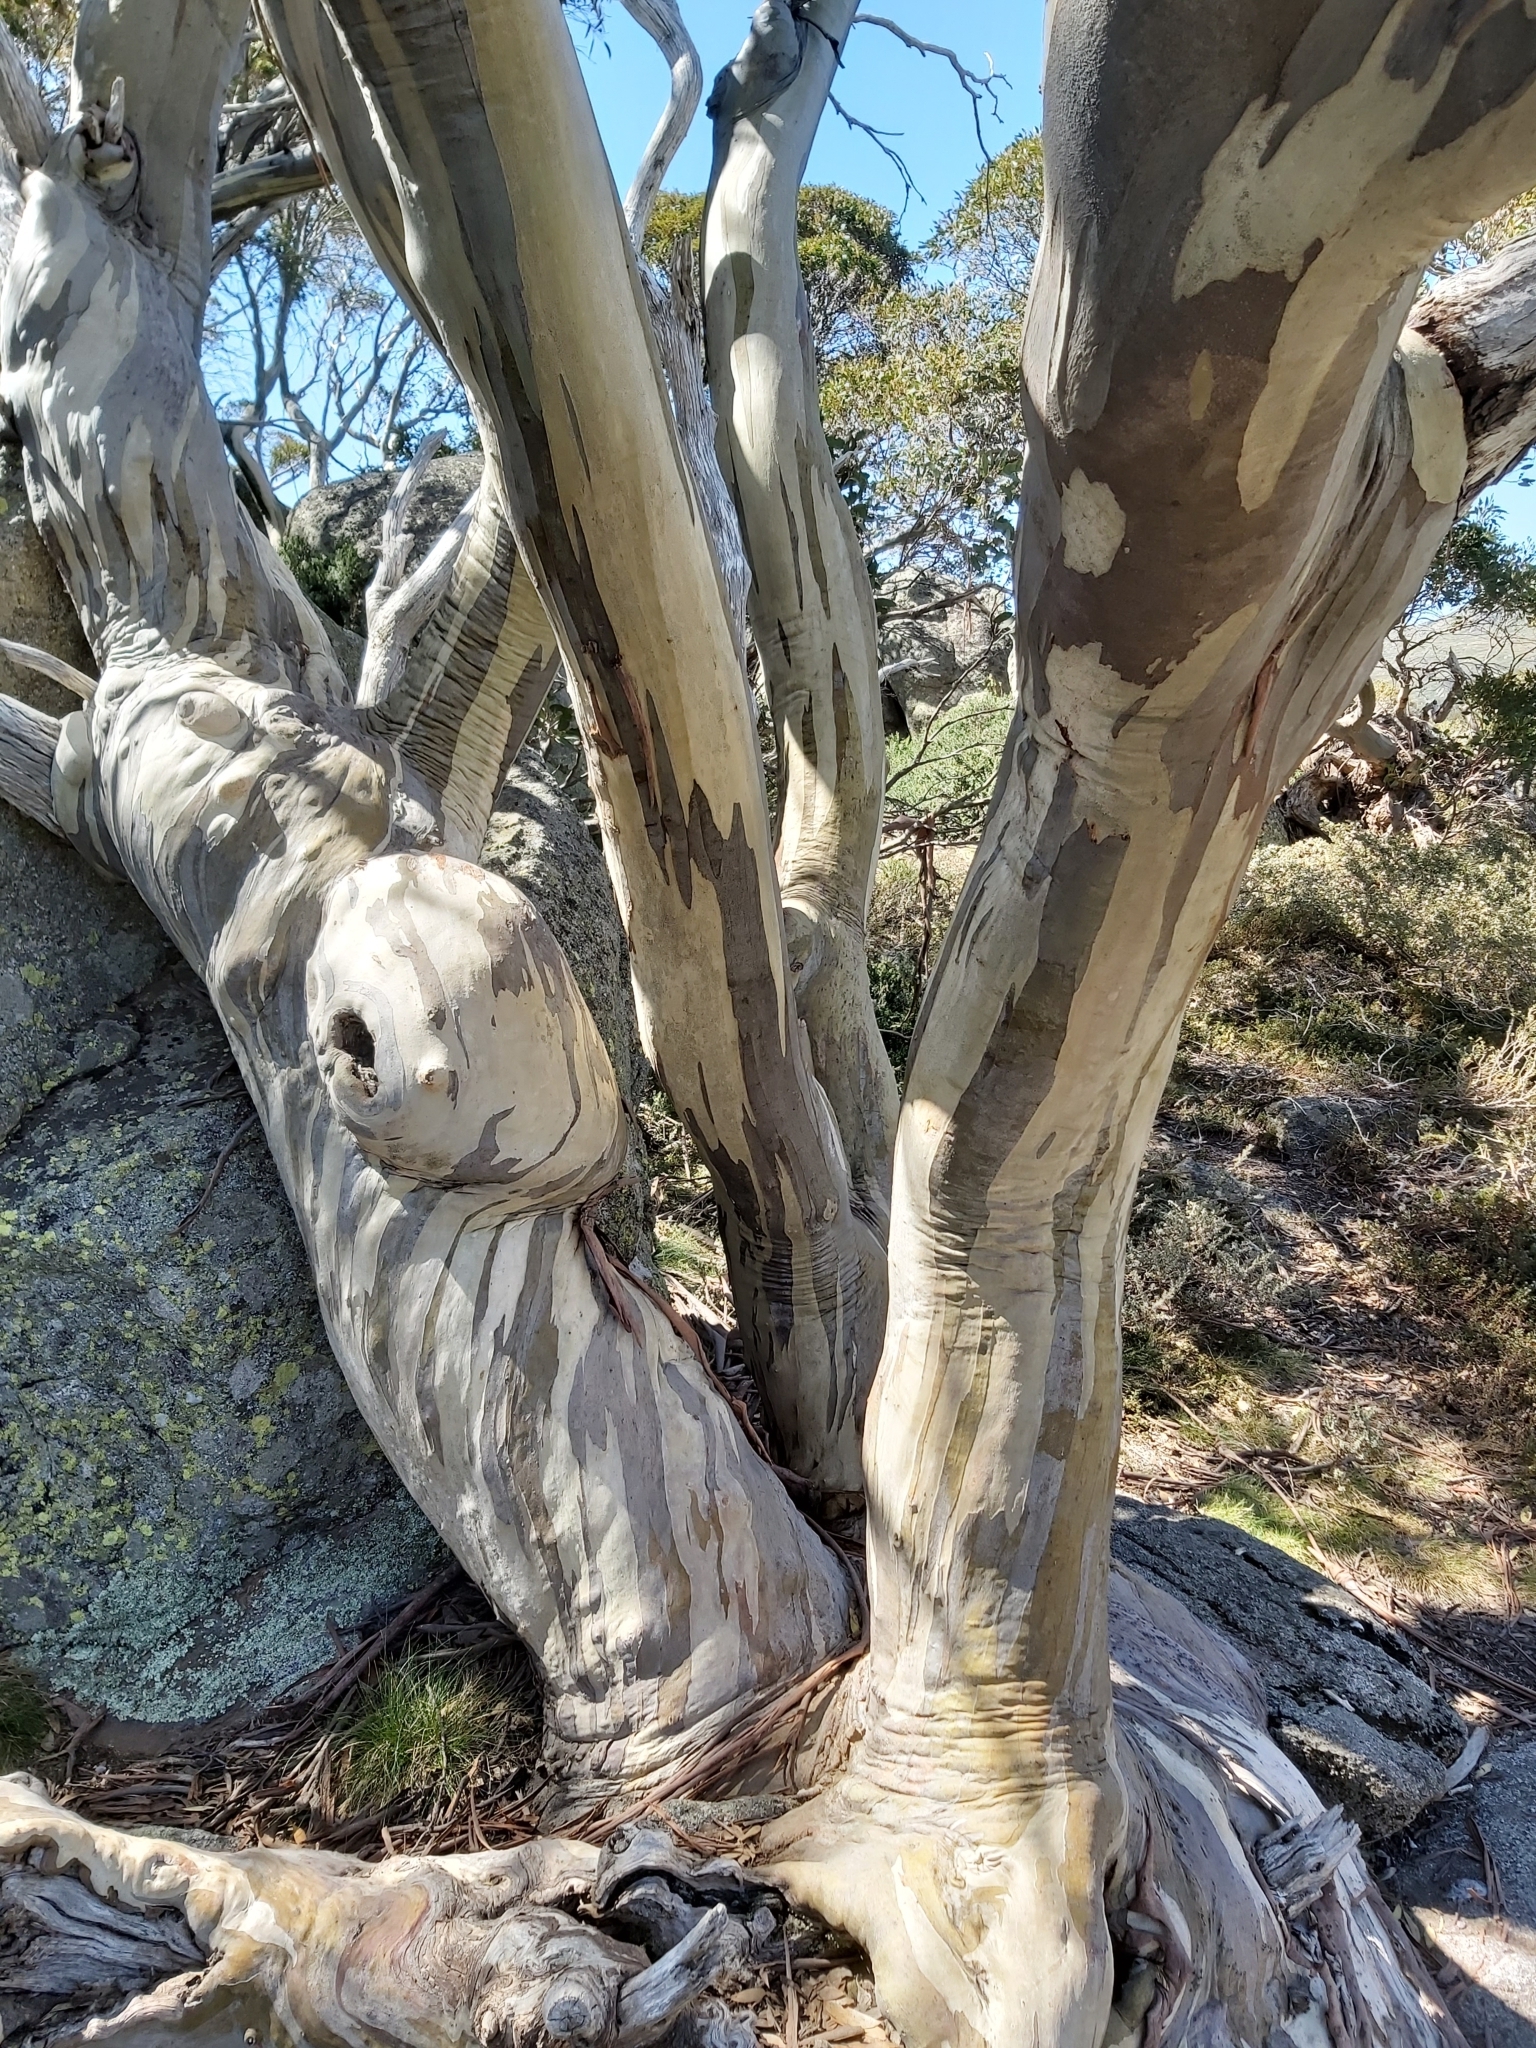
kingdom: Plantae
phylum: Tracheophyta
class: Magnoliopsida
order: Myrtales
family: Myrtaceae
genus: Eucalyptus
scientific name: Eucalyptus pauciflora
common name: Snow gum
